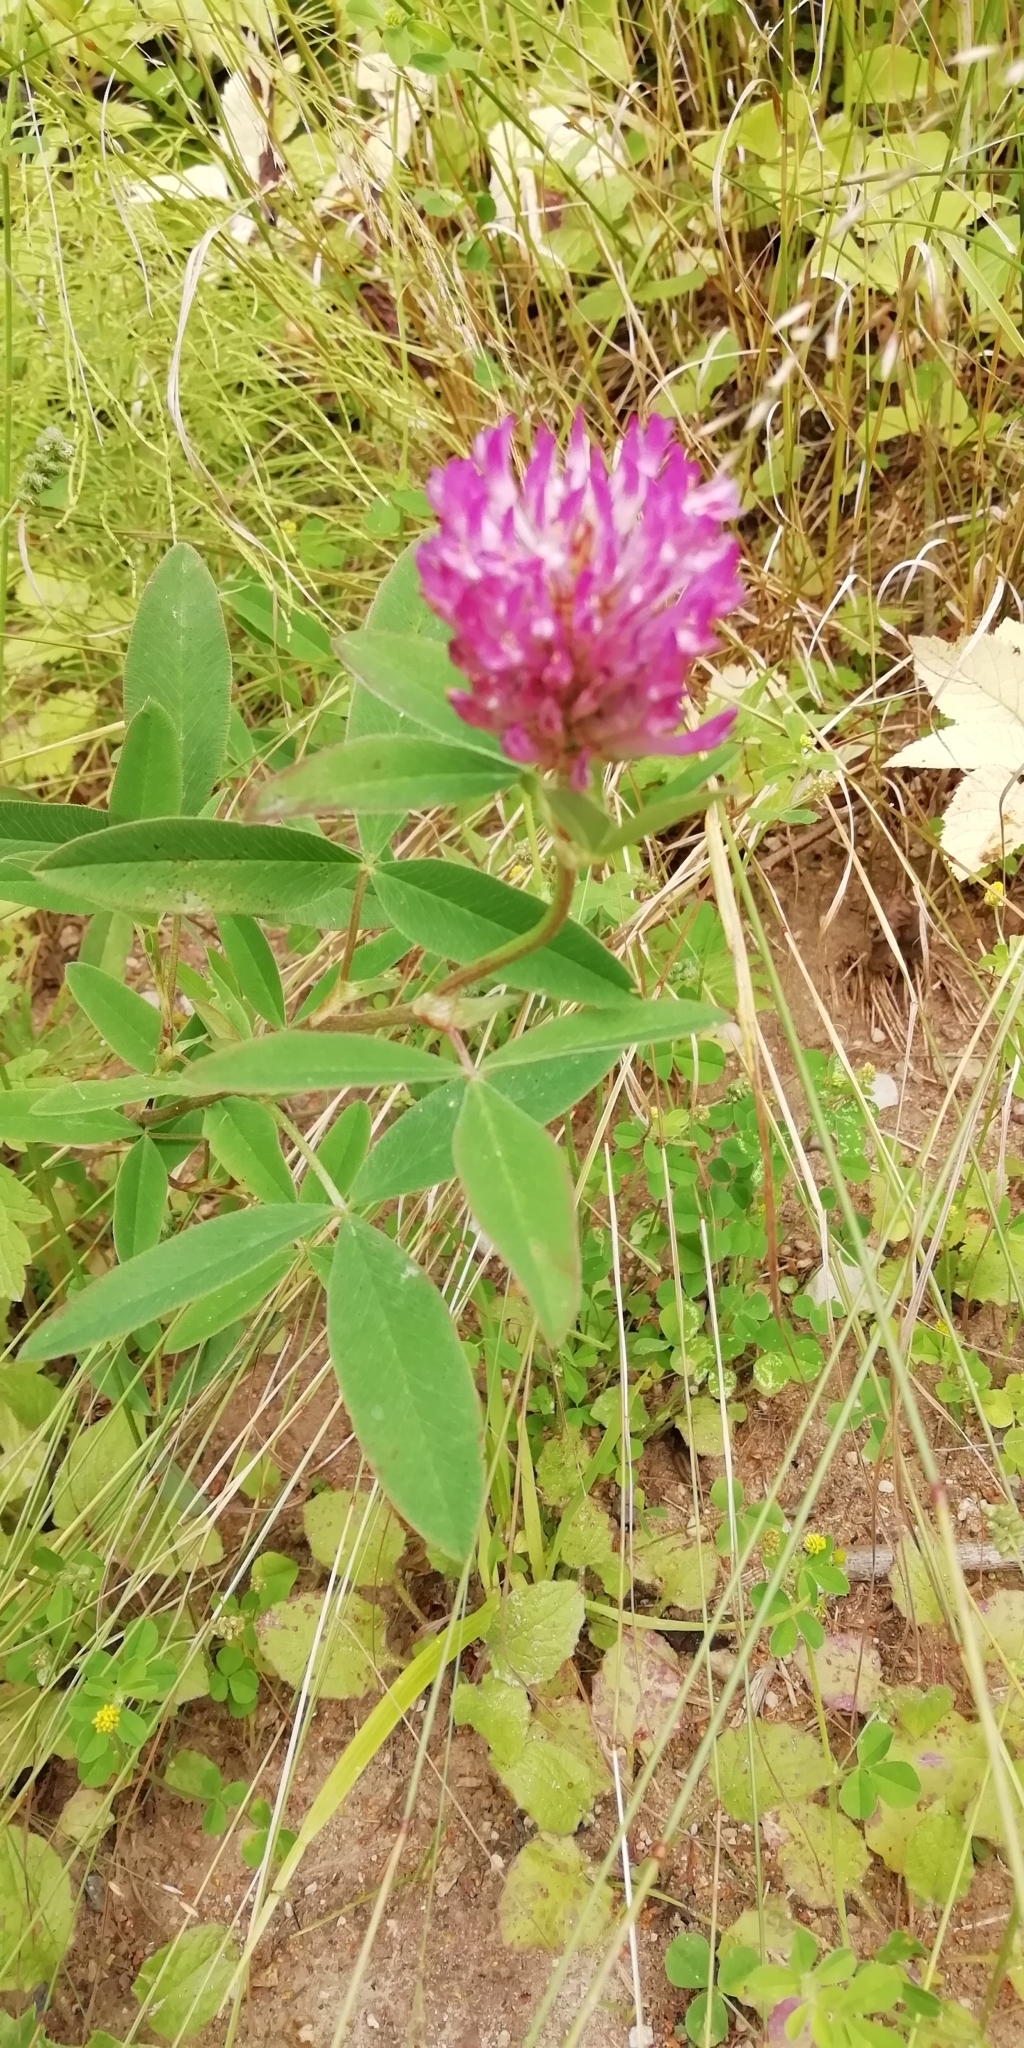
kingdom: Plantae
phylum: Tracheophyta
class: Magnoliopsida
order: Fabales
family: Fabaceae
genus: Trifolium
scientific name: Trifolium medium
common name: Zigzag clover
